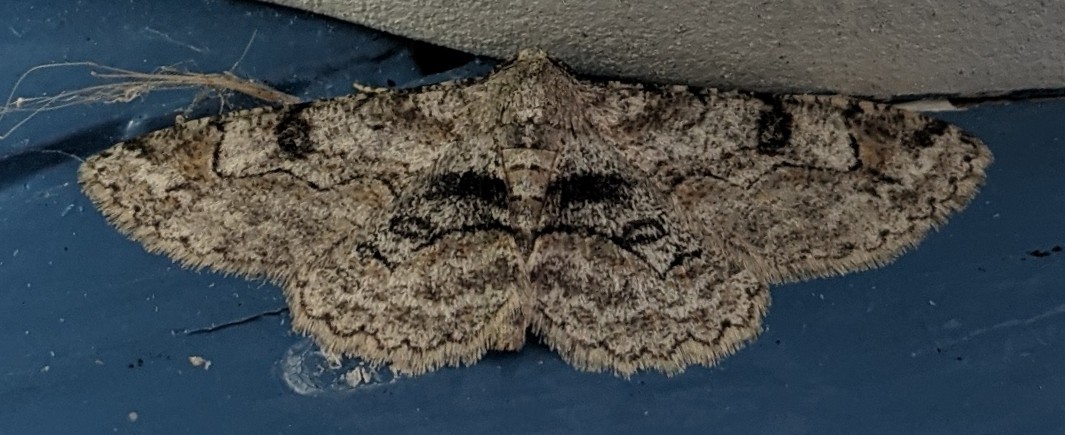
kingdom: Animalia
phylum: Arthropoda
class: Insecta
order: Lepidoptera
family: Geometridae
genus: Iridopsis
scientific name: Iridopsis larvaria
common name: Bent-line gray
